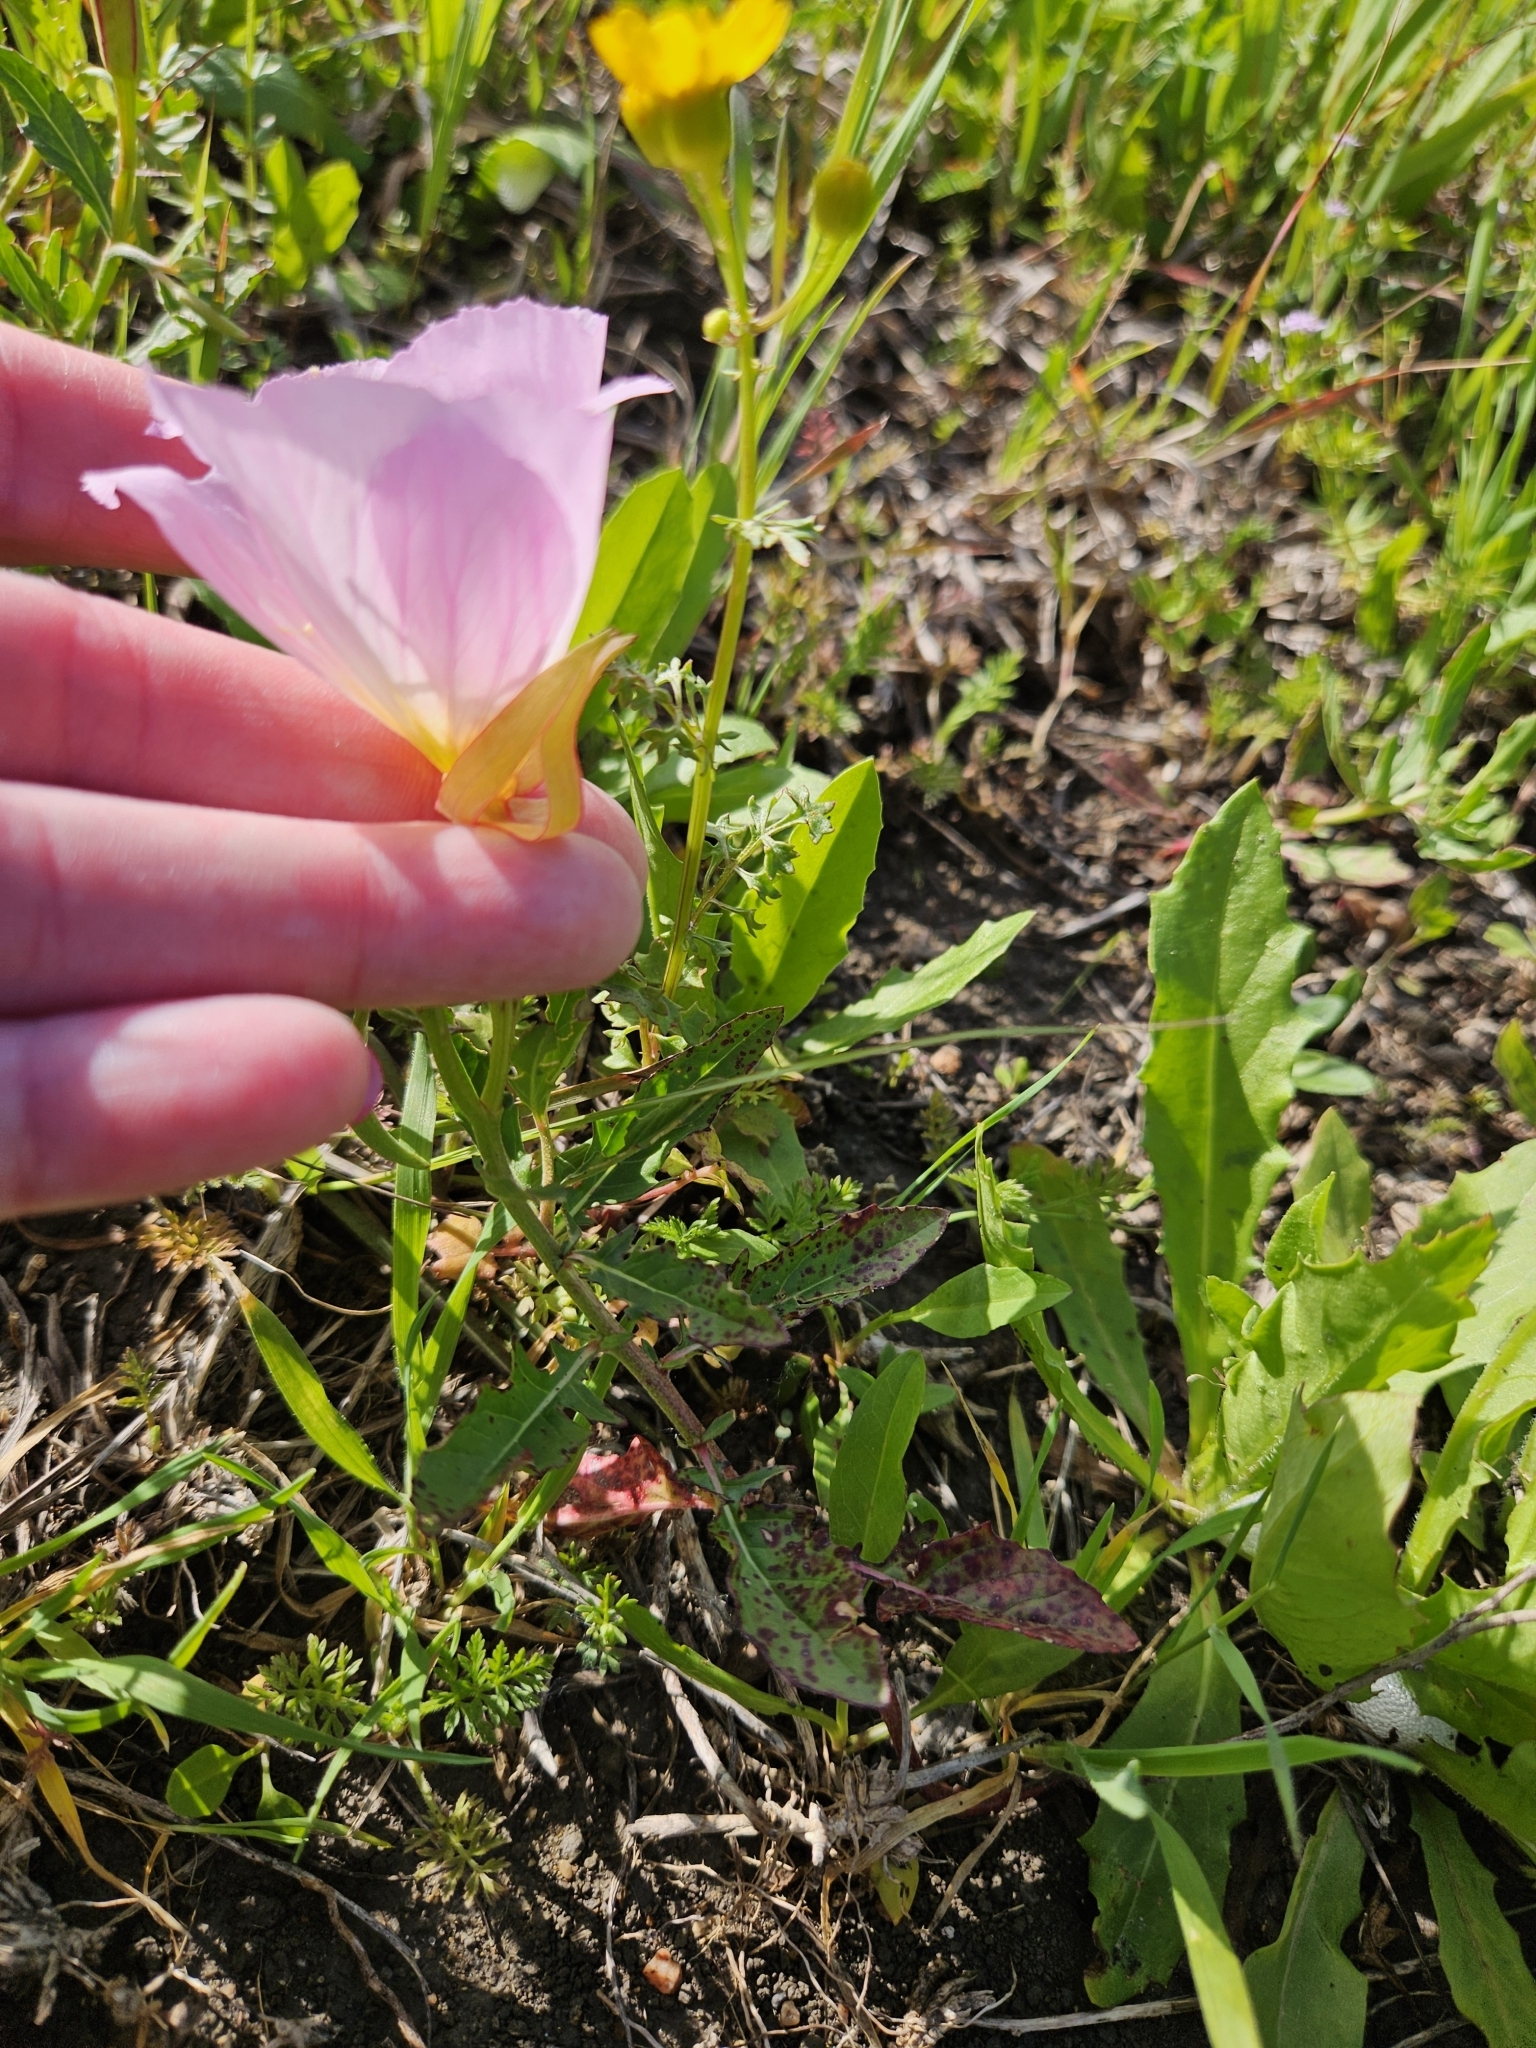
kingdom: Plantae
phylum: Tracheophyta
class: Magnoliopsida
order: Myrtales
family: Onagraceae
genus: Oenothera
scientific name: Oenothera speciosa
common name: White evening-primrose
